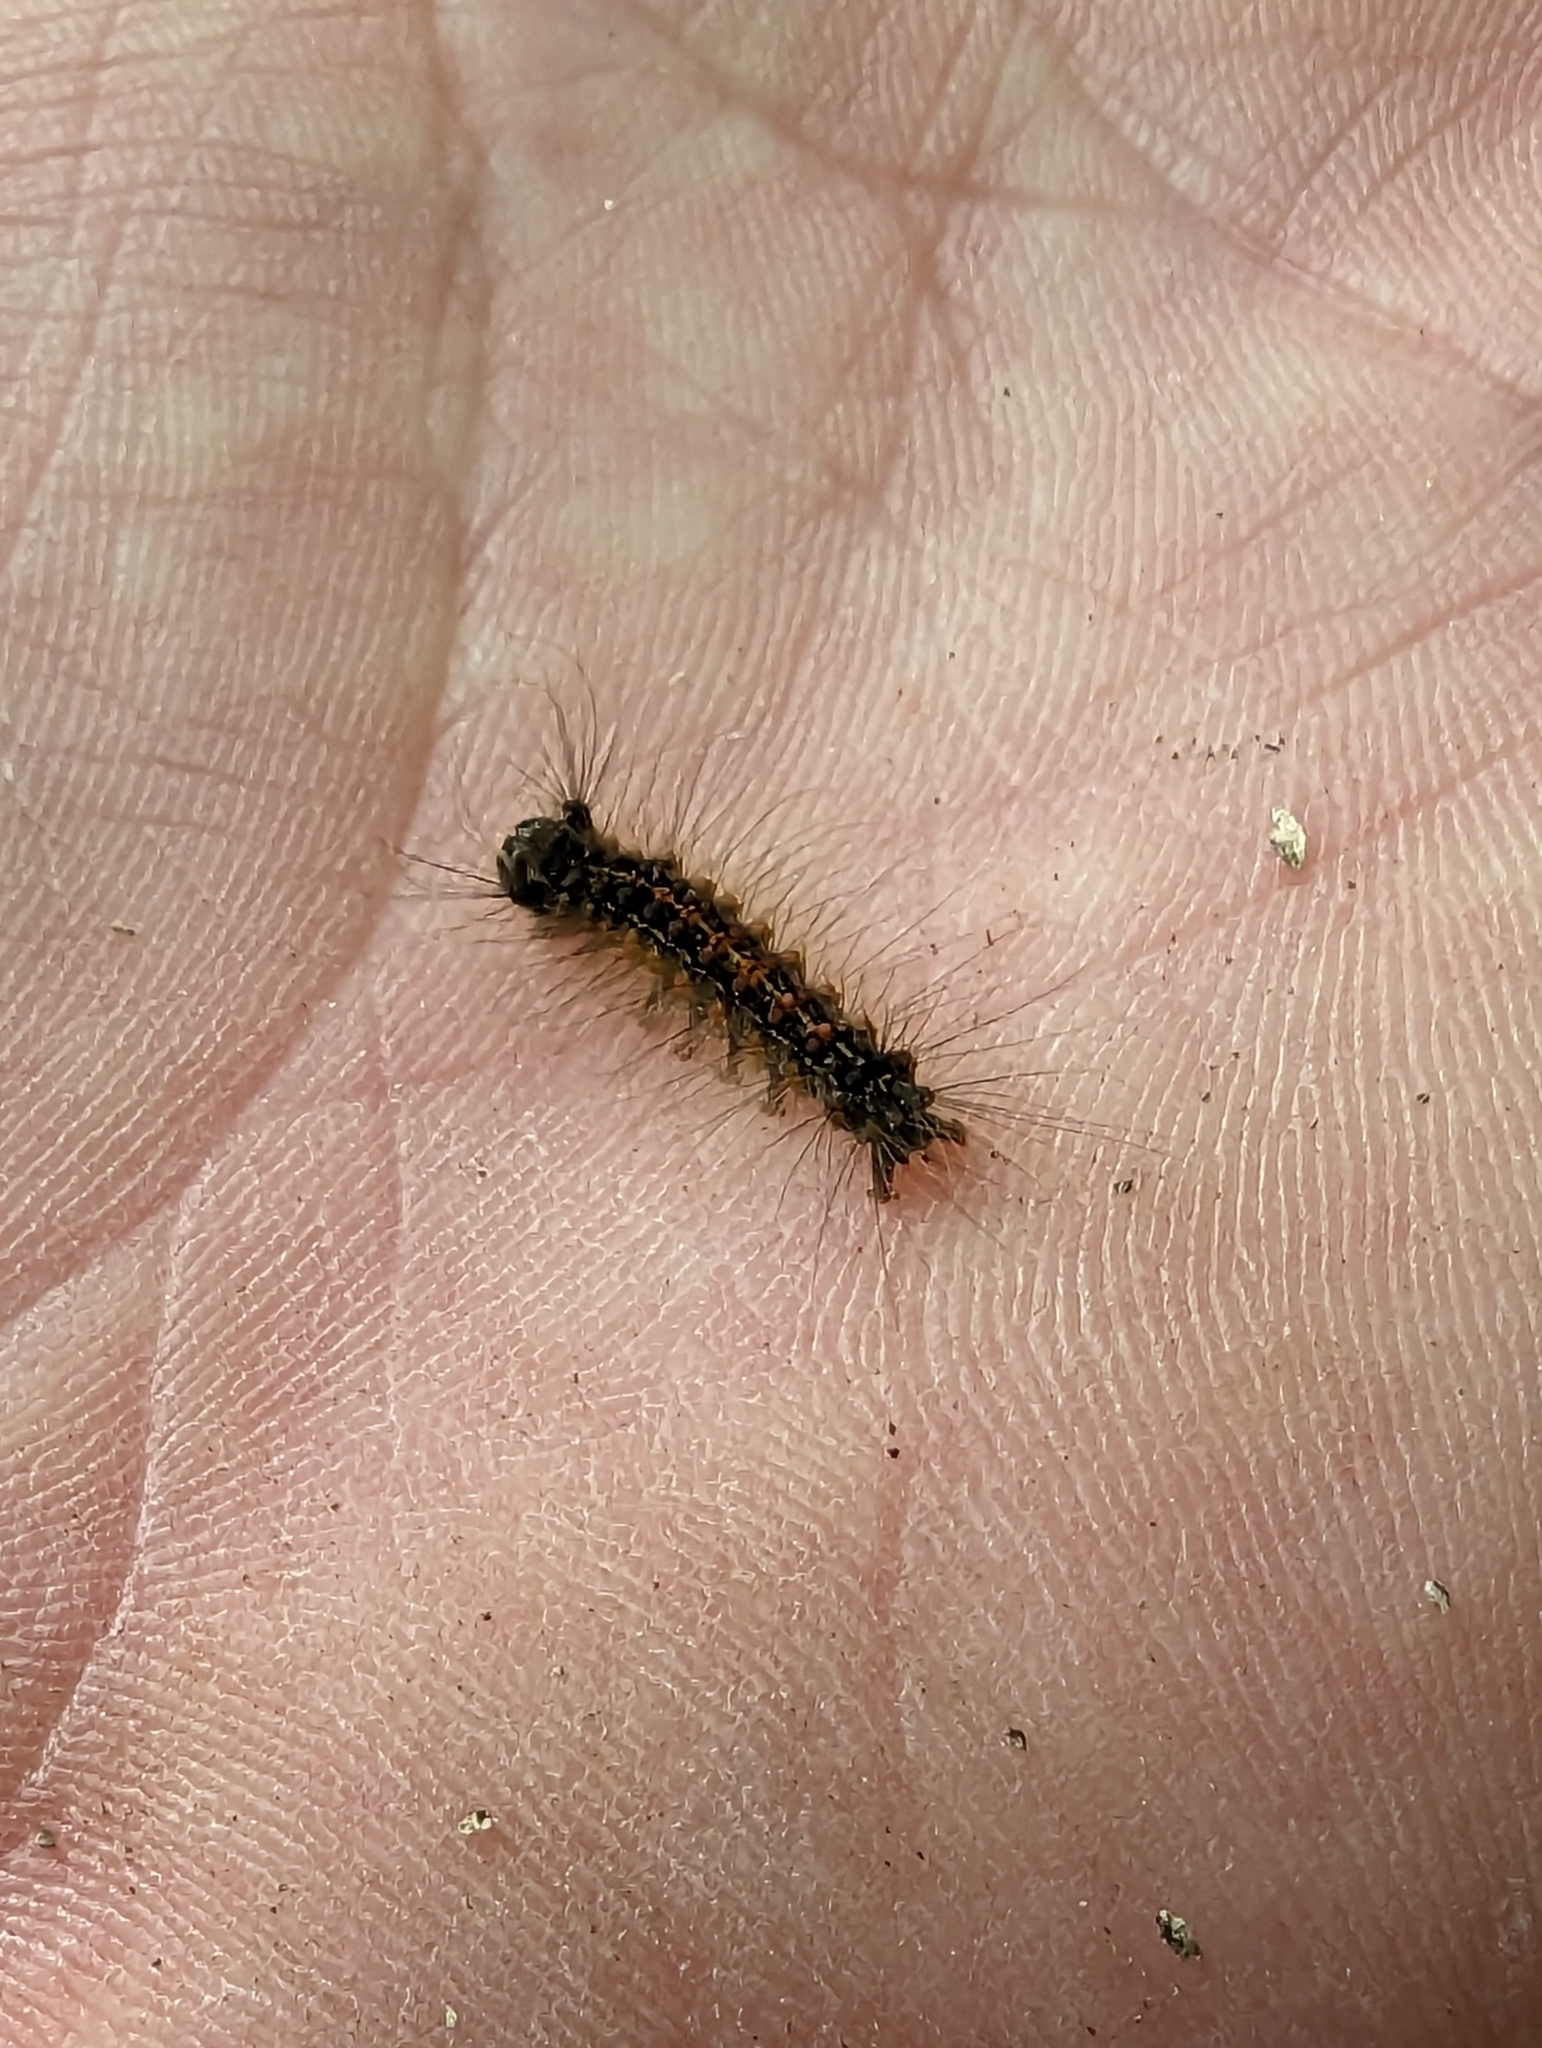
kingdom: Animalia
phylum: Arthropoda
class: Insecta
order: Lepidoptera
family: Erebidae
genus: Lymantria
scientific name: Lymantria dispar
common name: Gypsy moth
